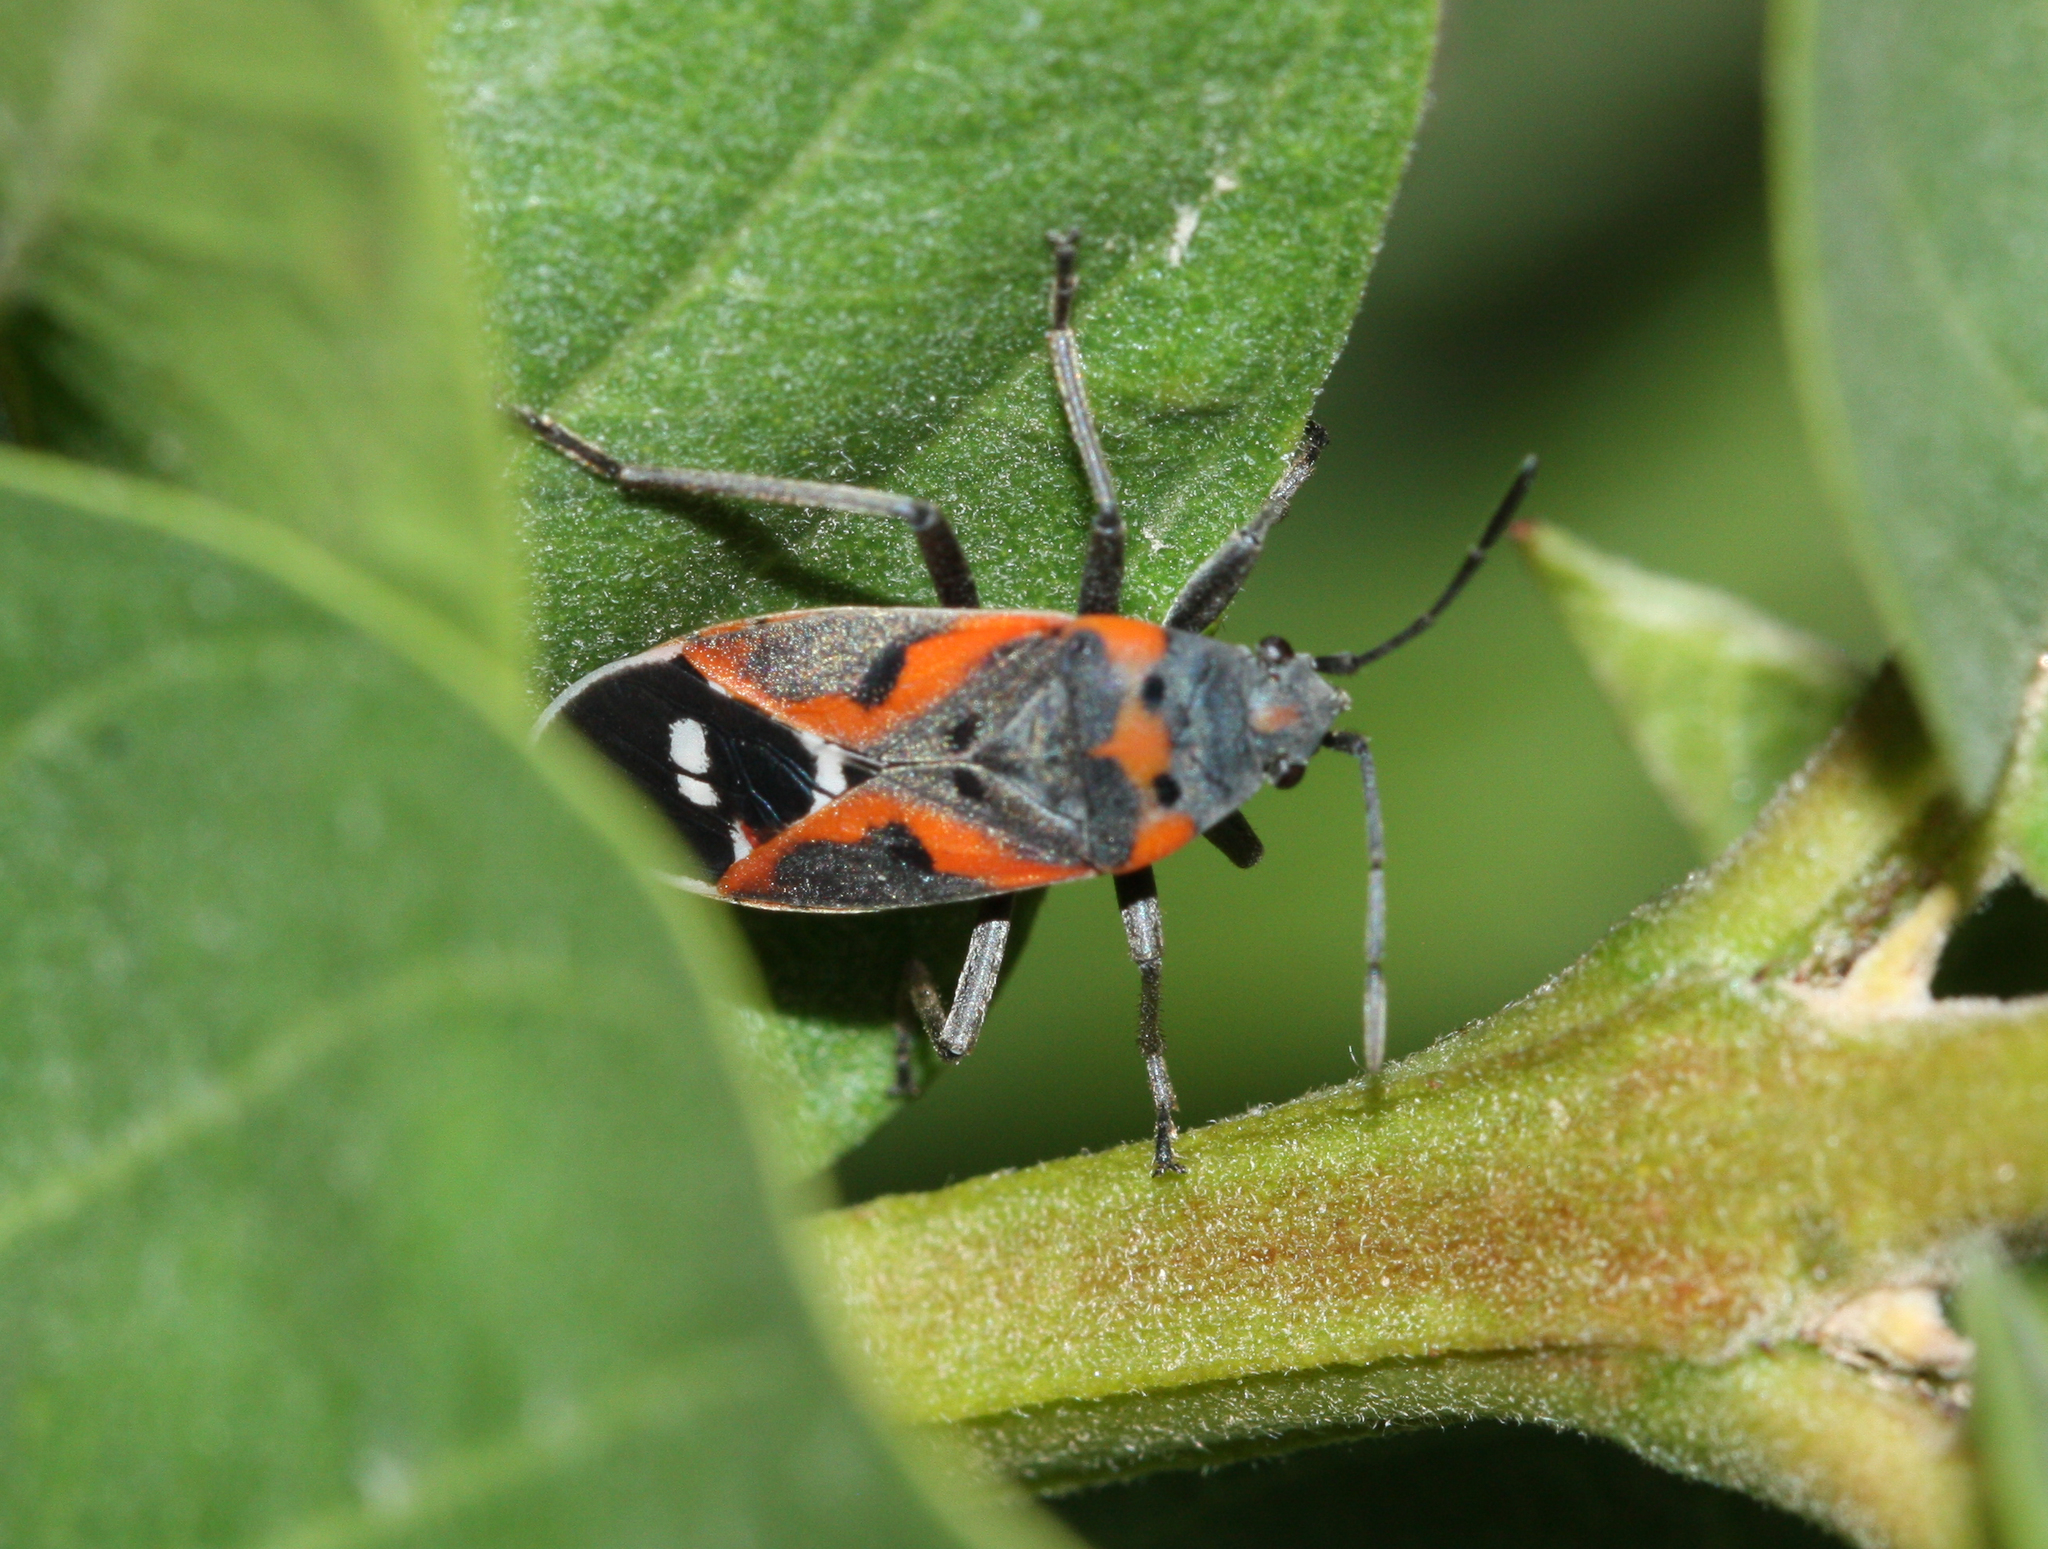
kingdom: Animalia
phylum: Arthropoda
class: Insecta
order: Hemiptera
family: Lygaeidae
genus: Lygaeus
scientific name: Lygaeus kalmii
